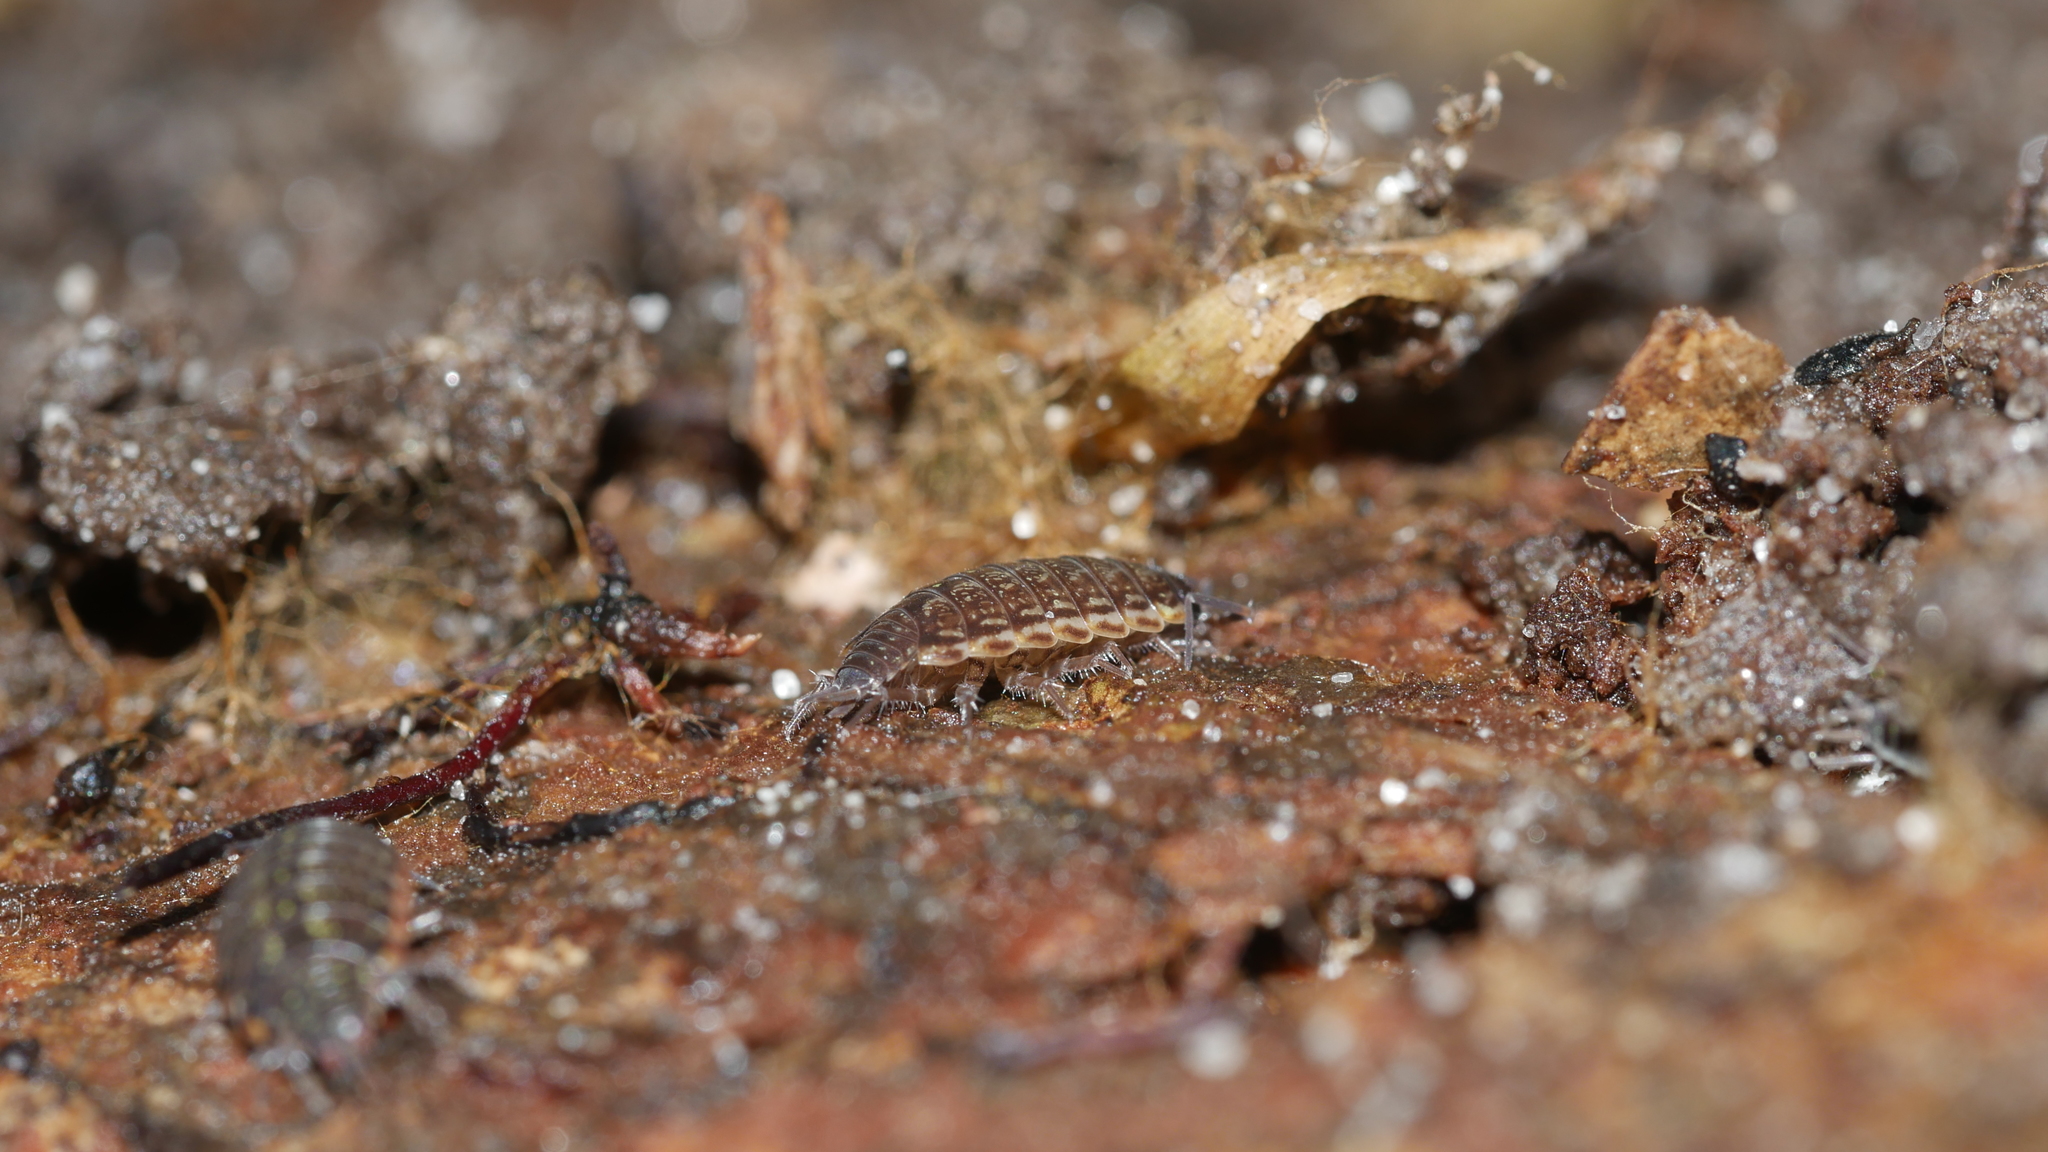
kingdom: Animalia
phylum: Arthropoda
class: Malacostraca
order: Isopoda
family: Philosciidae
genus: Philoscia
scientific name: Philoscia muscorum
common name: Common striped woodlouse
